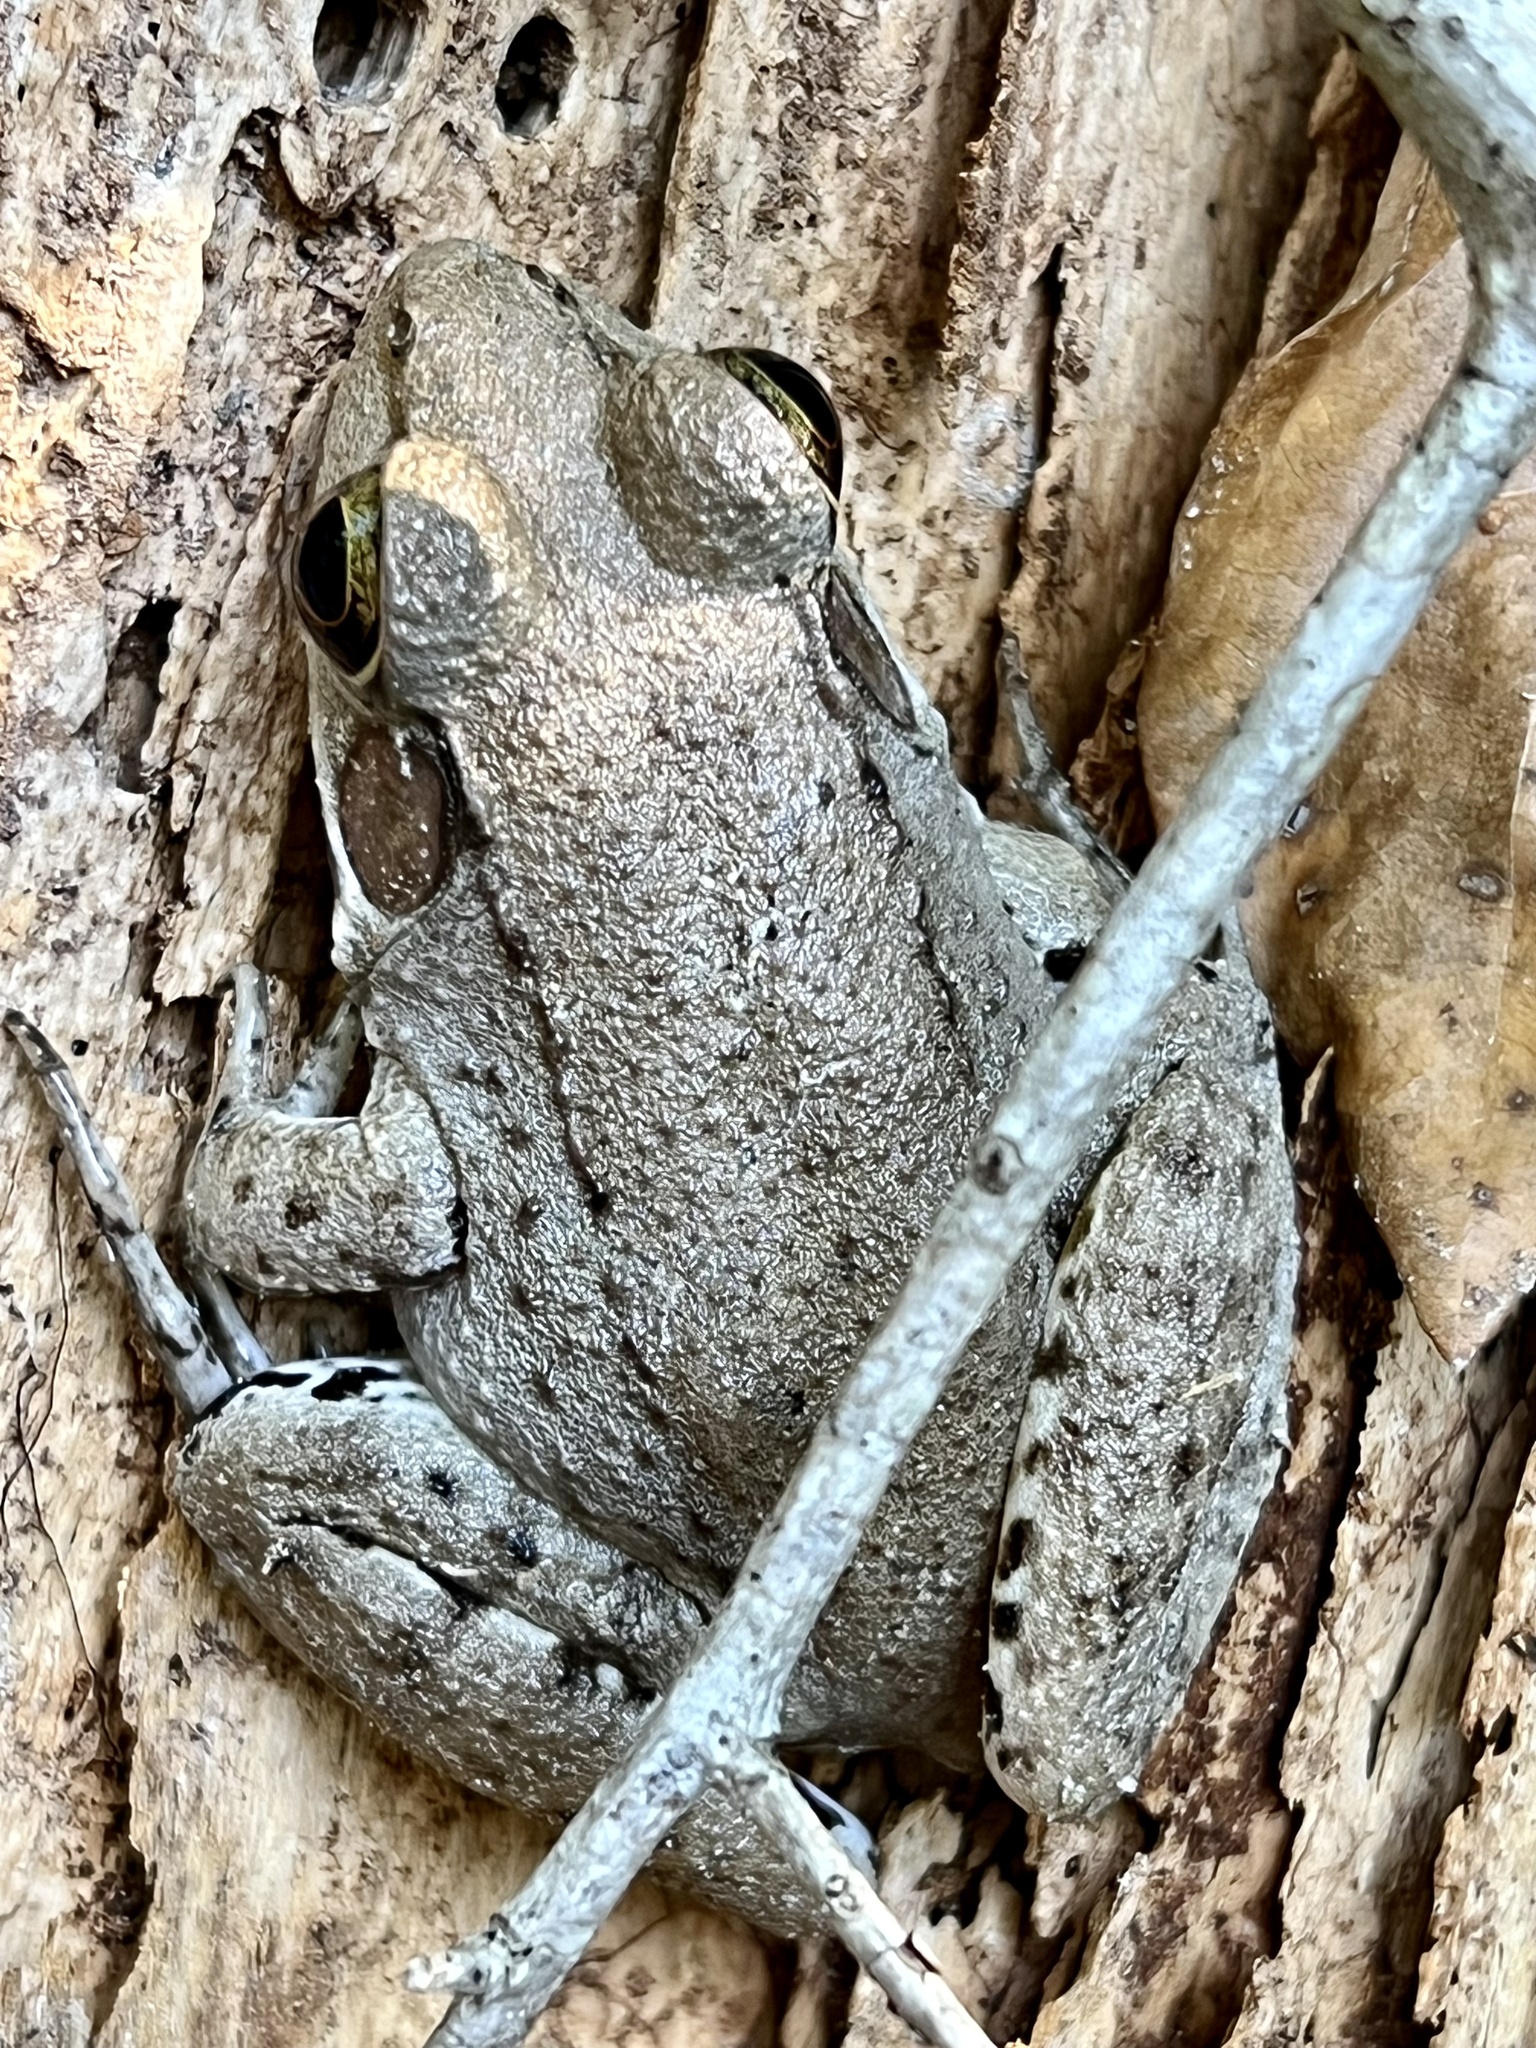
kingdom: Animalia
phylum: Chordata
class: Amphibia
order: Anura
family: Ranidae
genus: Lithobates
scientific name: Lithobates clamitans
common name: Green frog
